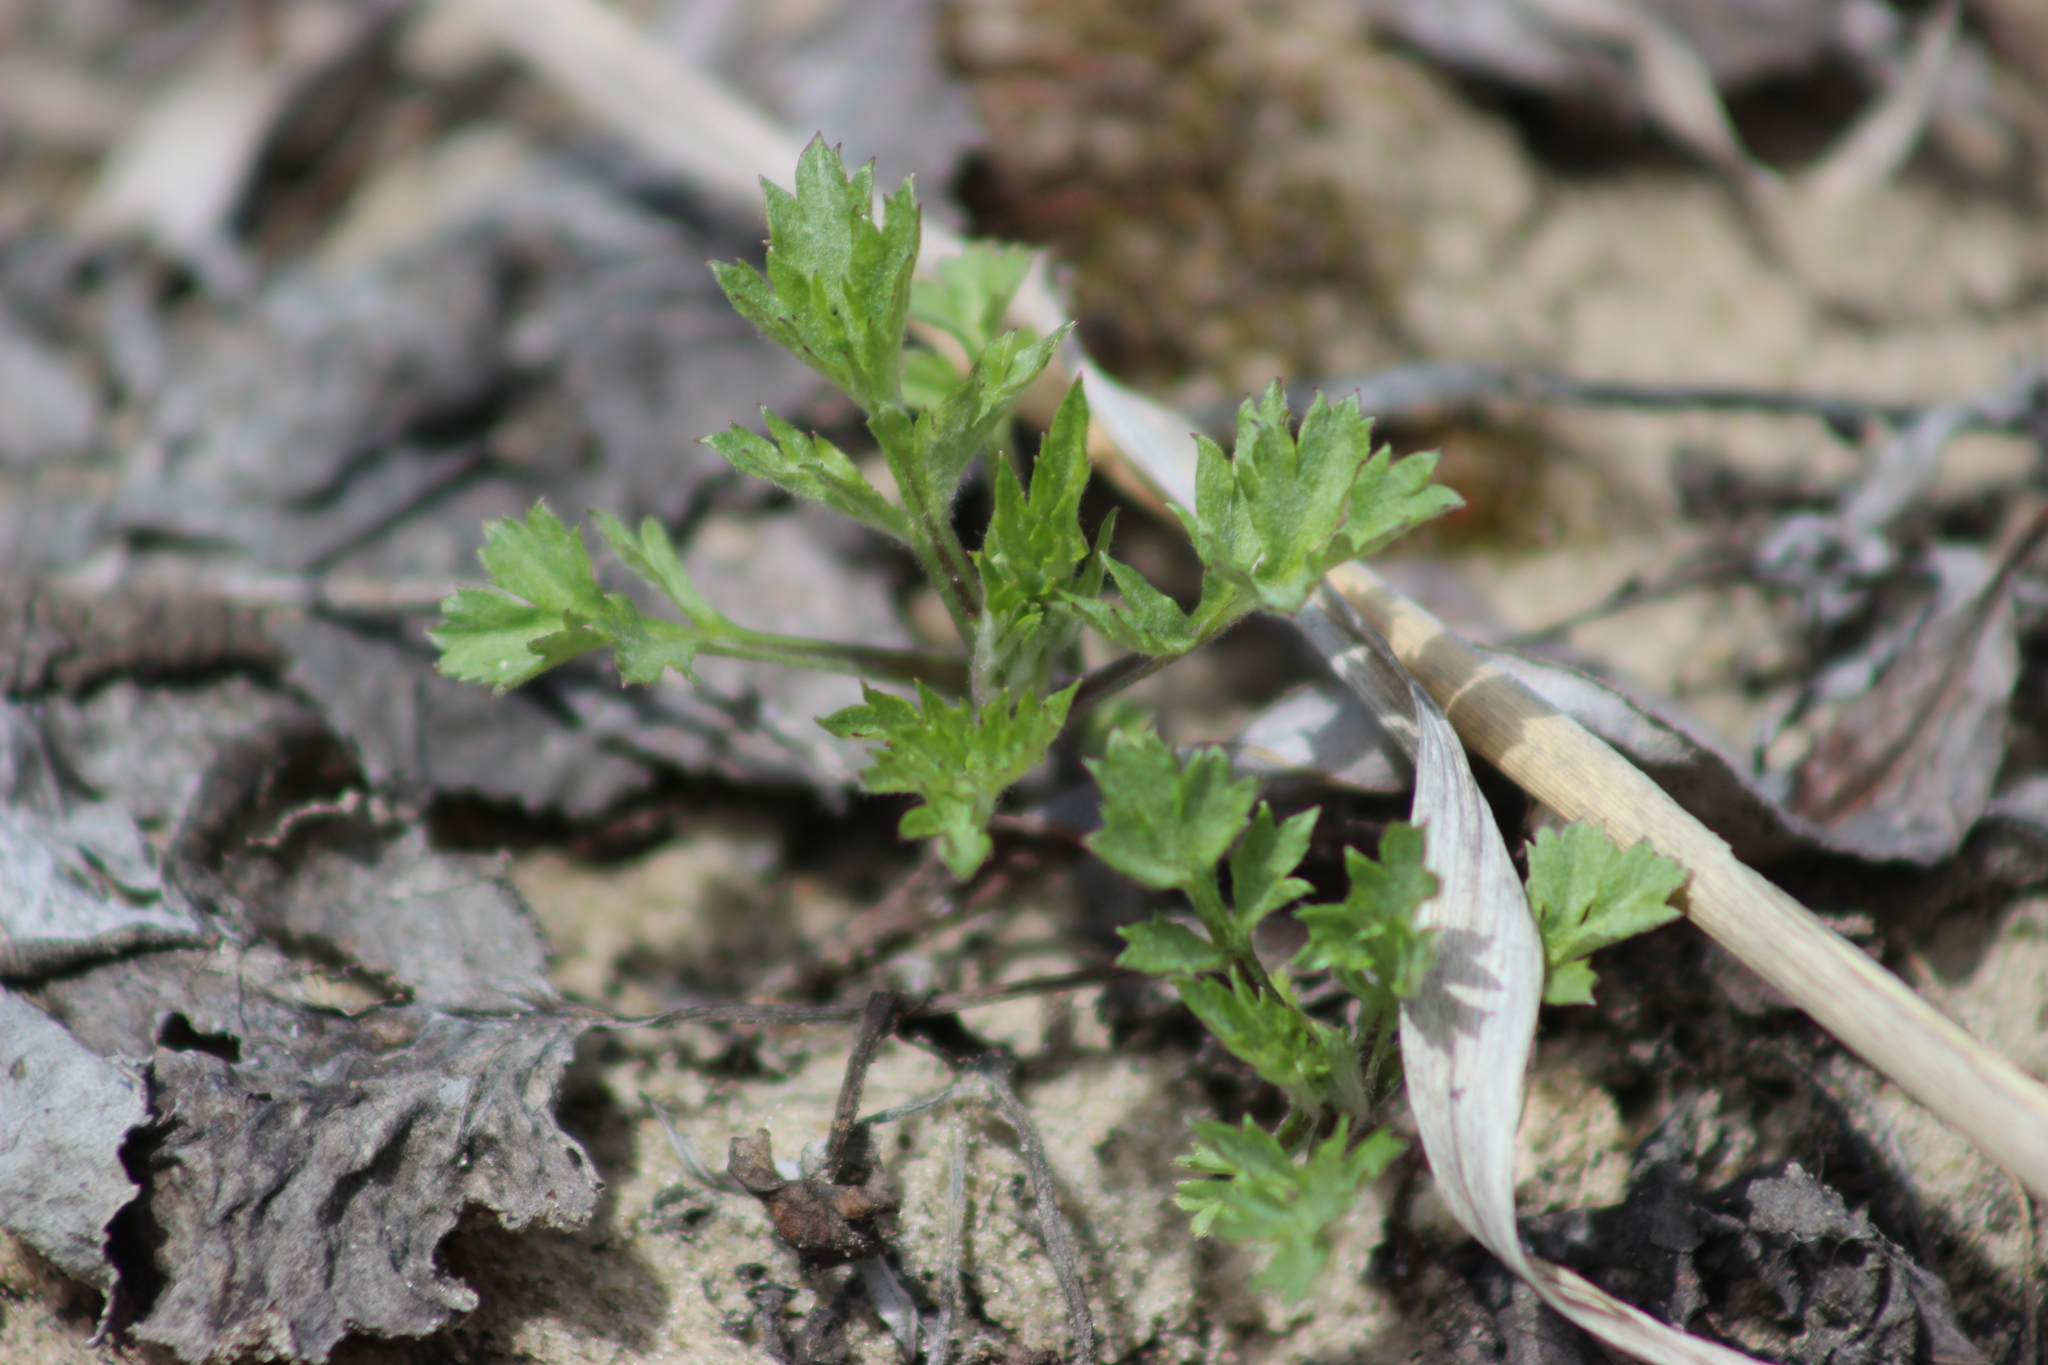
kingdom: Plantae
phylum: Tracheophyta
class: Magnoliopsida
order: Asterales
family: Asteraceae
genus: Artemisia
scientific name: Artemisia vulgaris
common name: Mugwort
